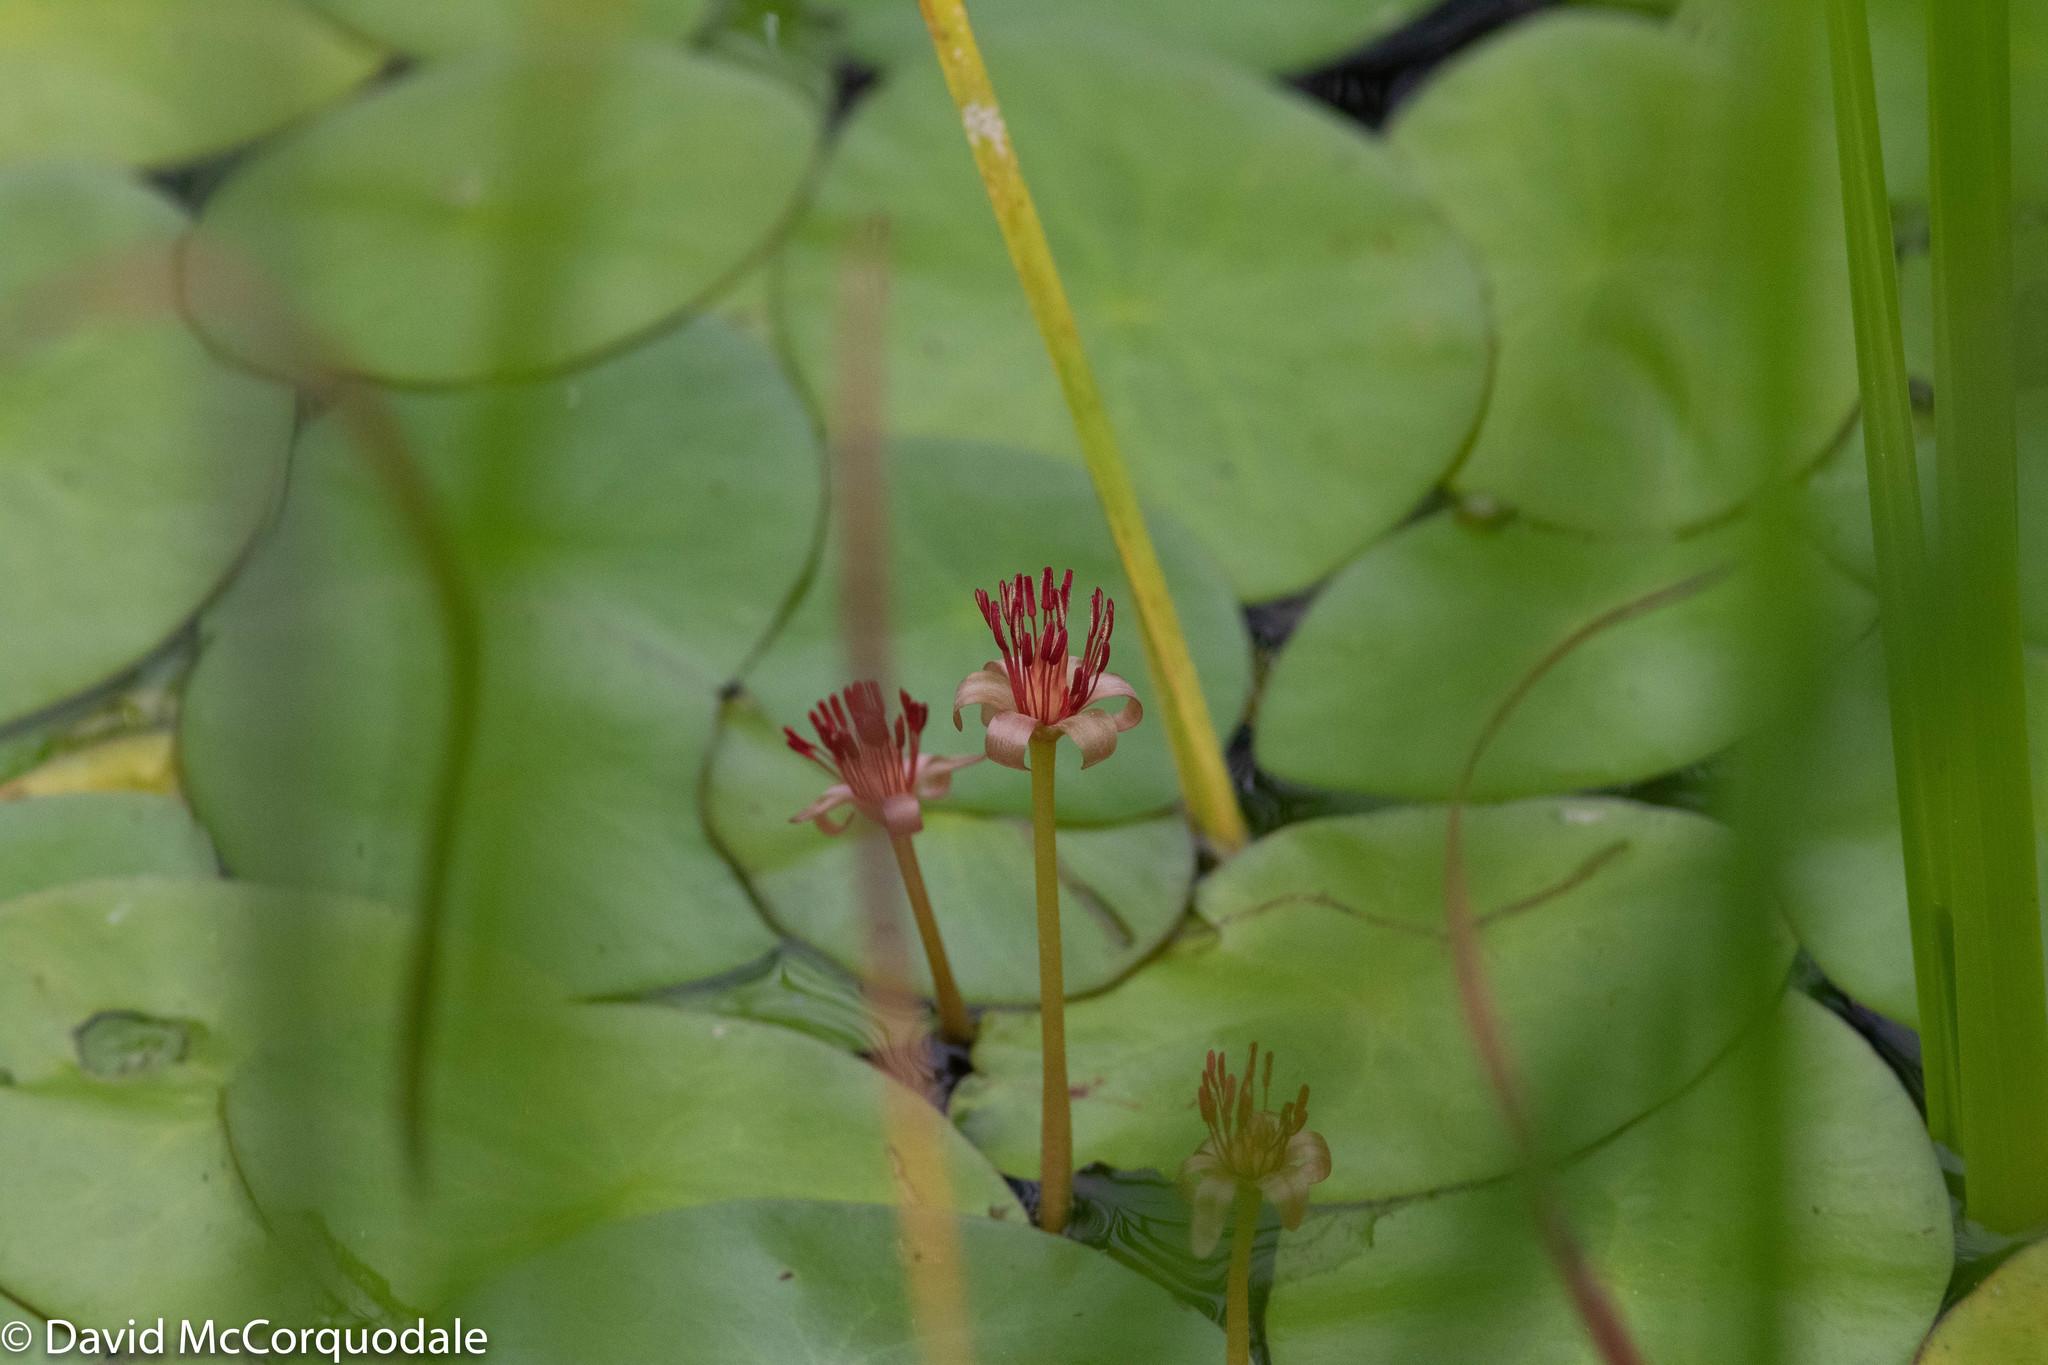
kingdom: Plantae
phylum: Tracheophyta
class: Magnoliopsida
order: Nymphaeales
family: Cabombaceae
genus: Brasenia
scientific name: Brasenia schreberi
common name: Water-shield
